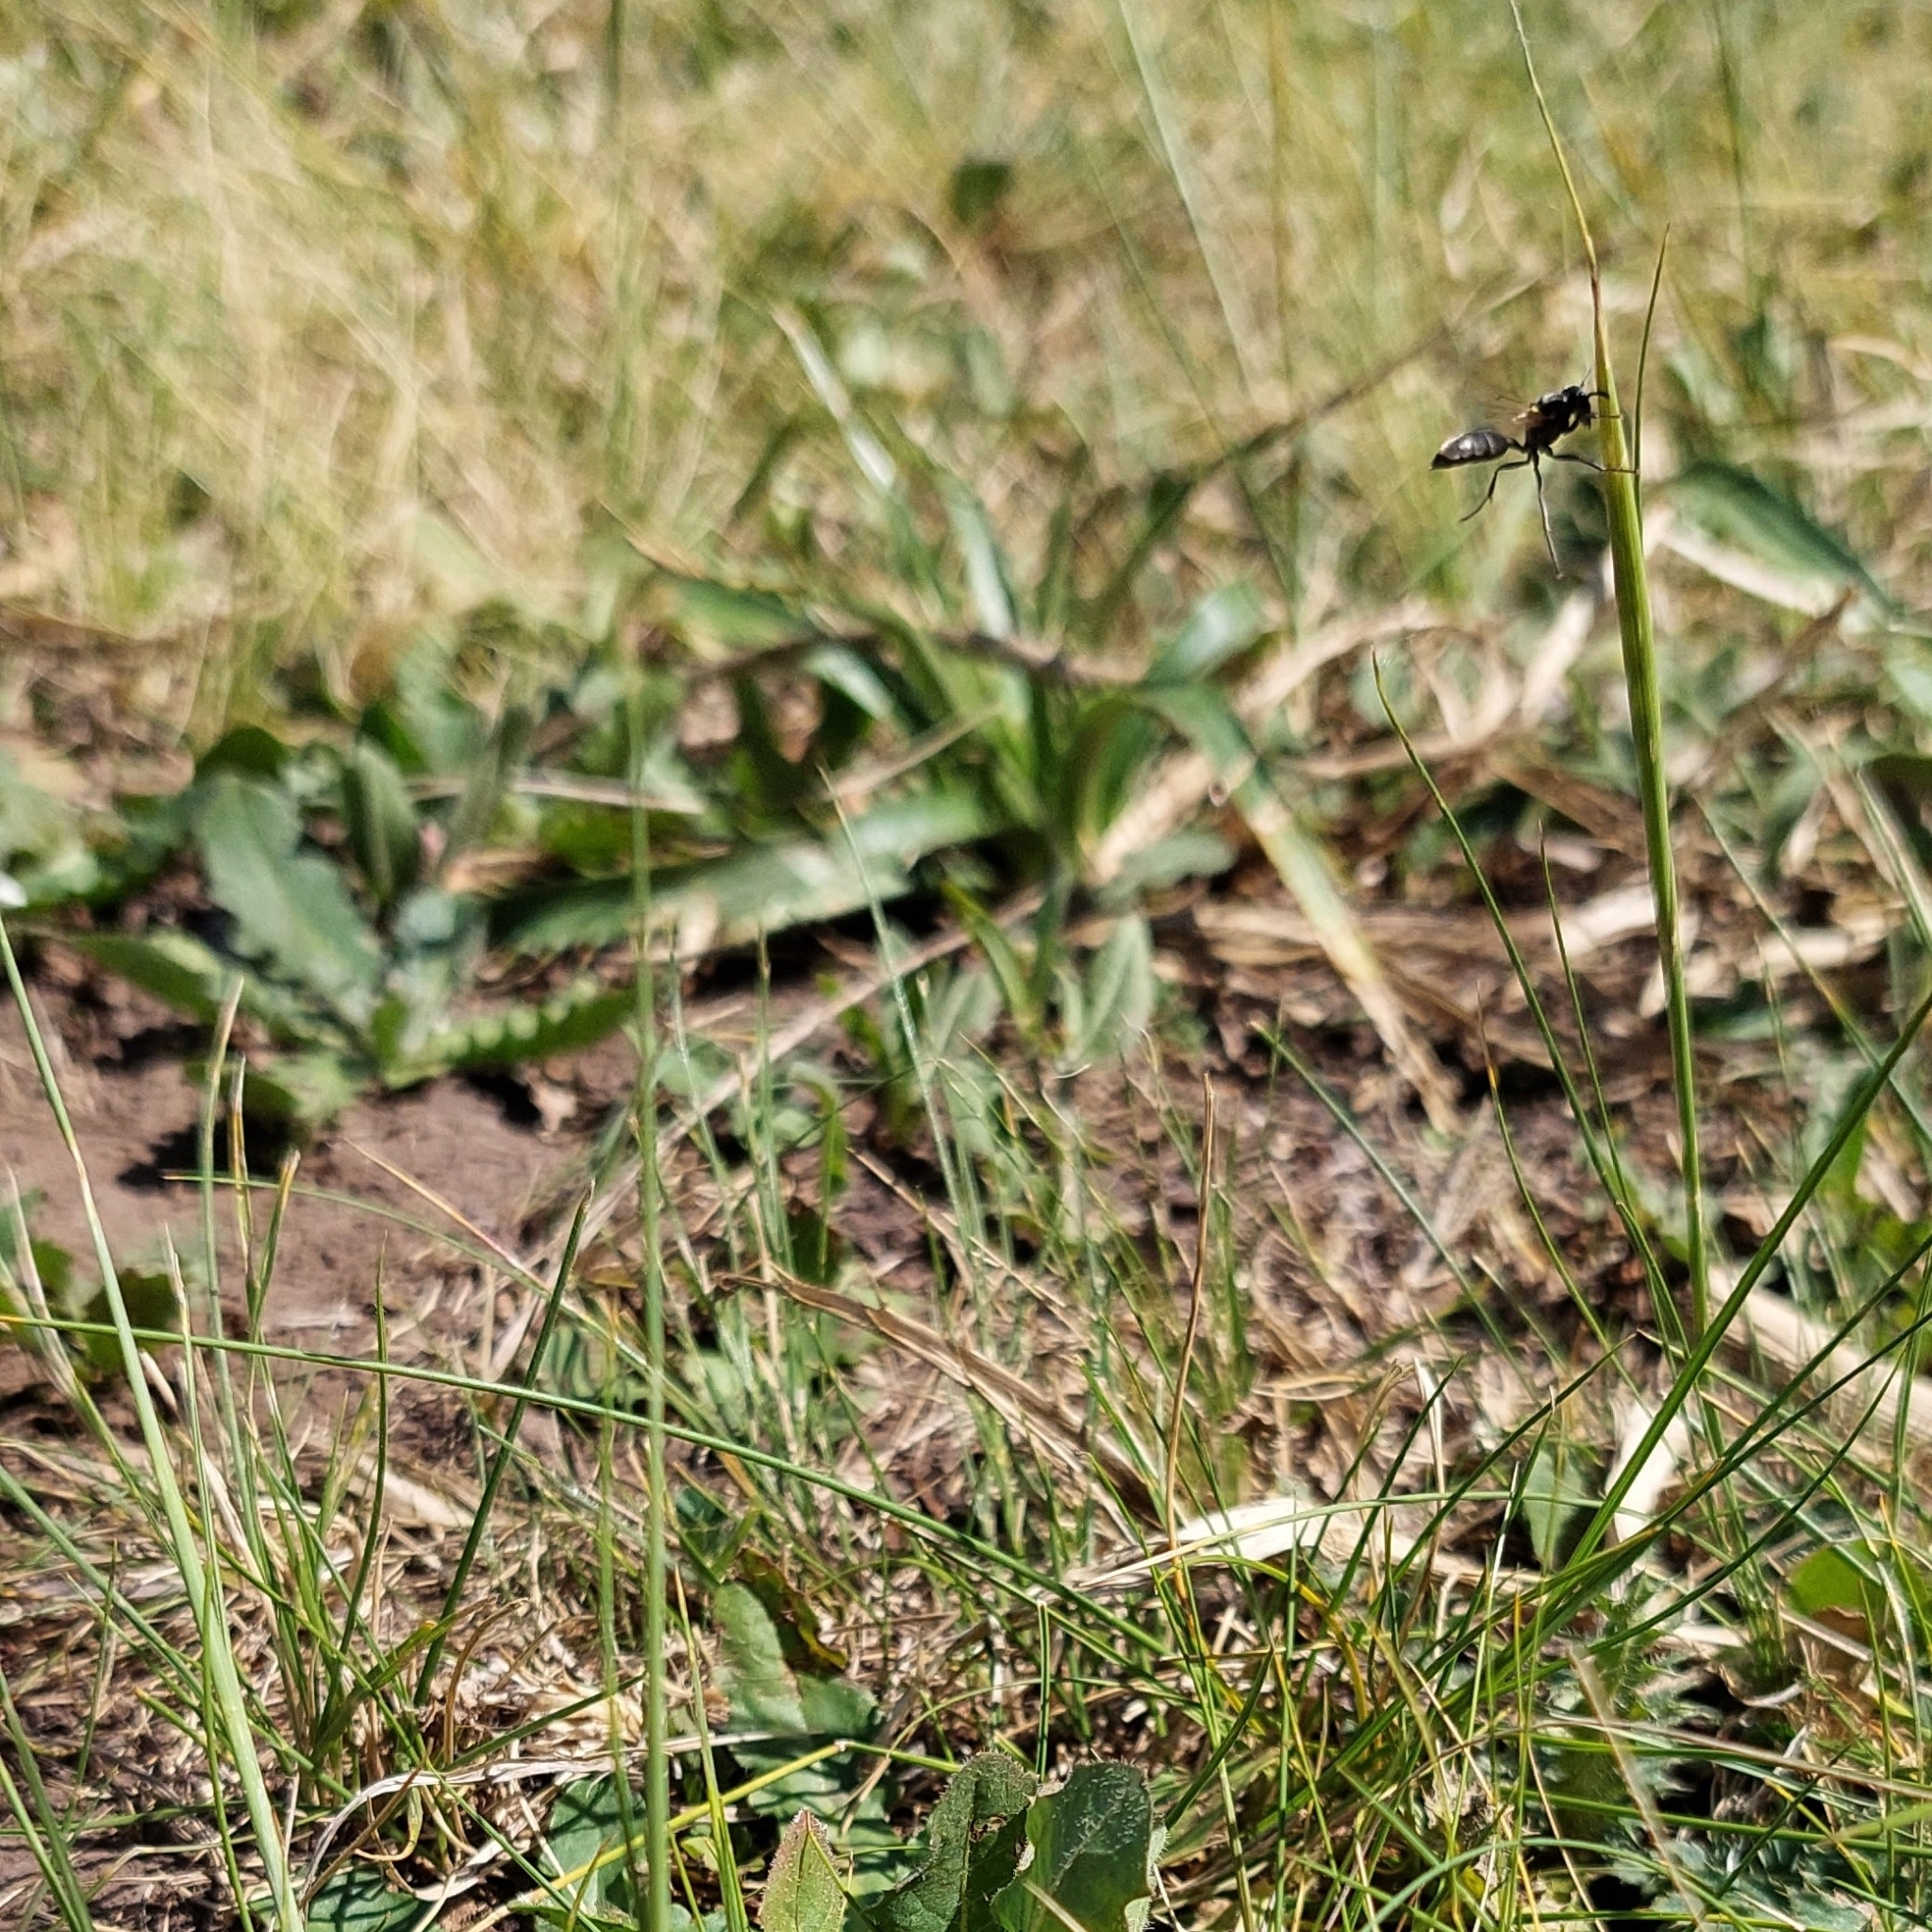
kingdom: Animalia
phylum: Arthropoda
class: Insecta
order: Hymenoptera
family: Eumenidae
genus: Polybia
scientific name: Polybia scutellaris
